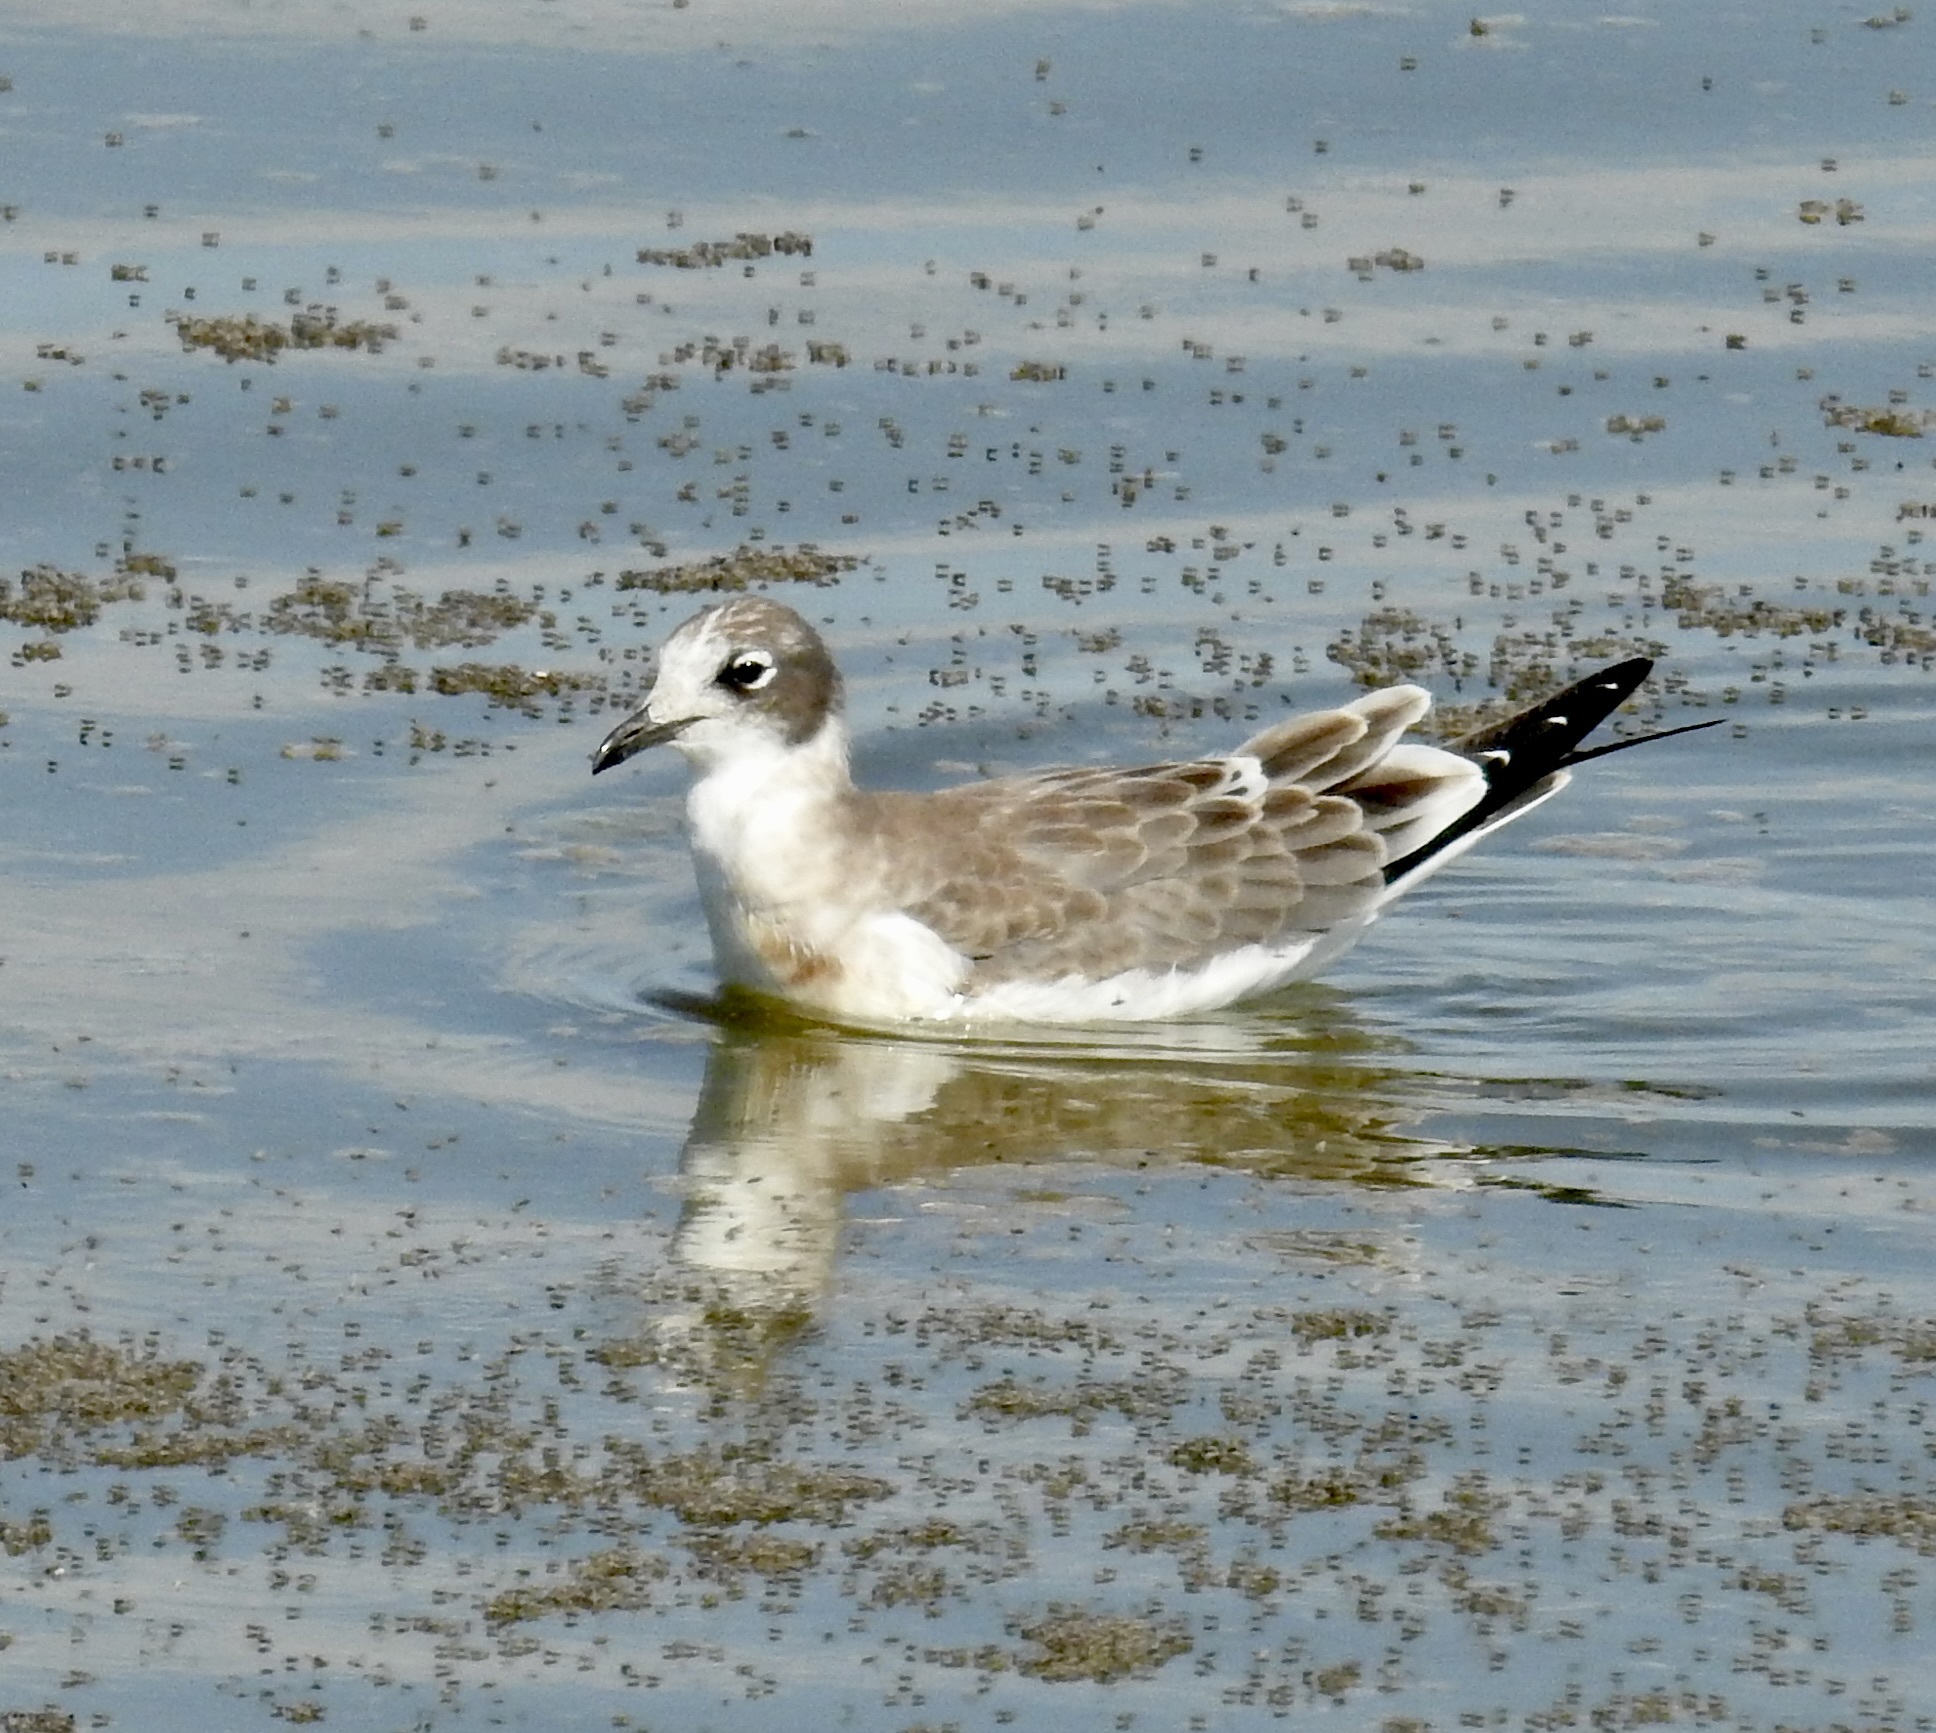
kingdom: Animalia
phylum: Chordata
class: Aves
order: Charadriiformes
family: Laridae
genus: Leucophaeus
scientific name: Leucophaeus pipixcan
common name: Franklin's gull
